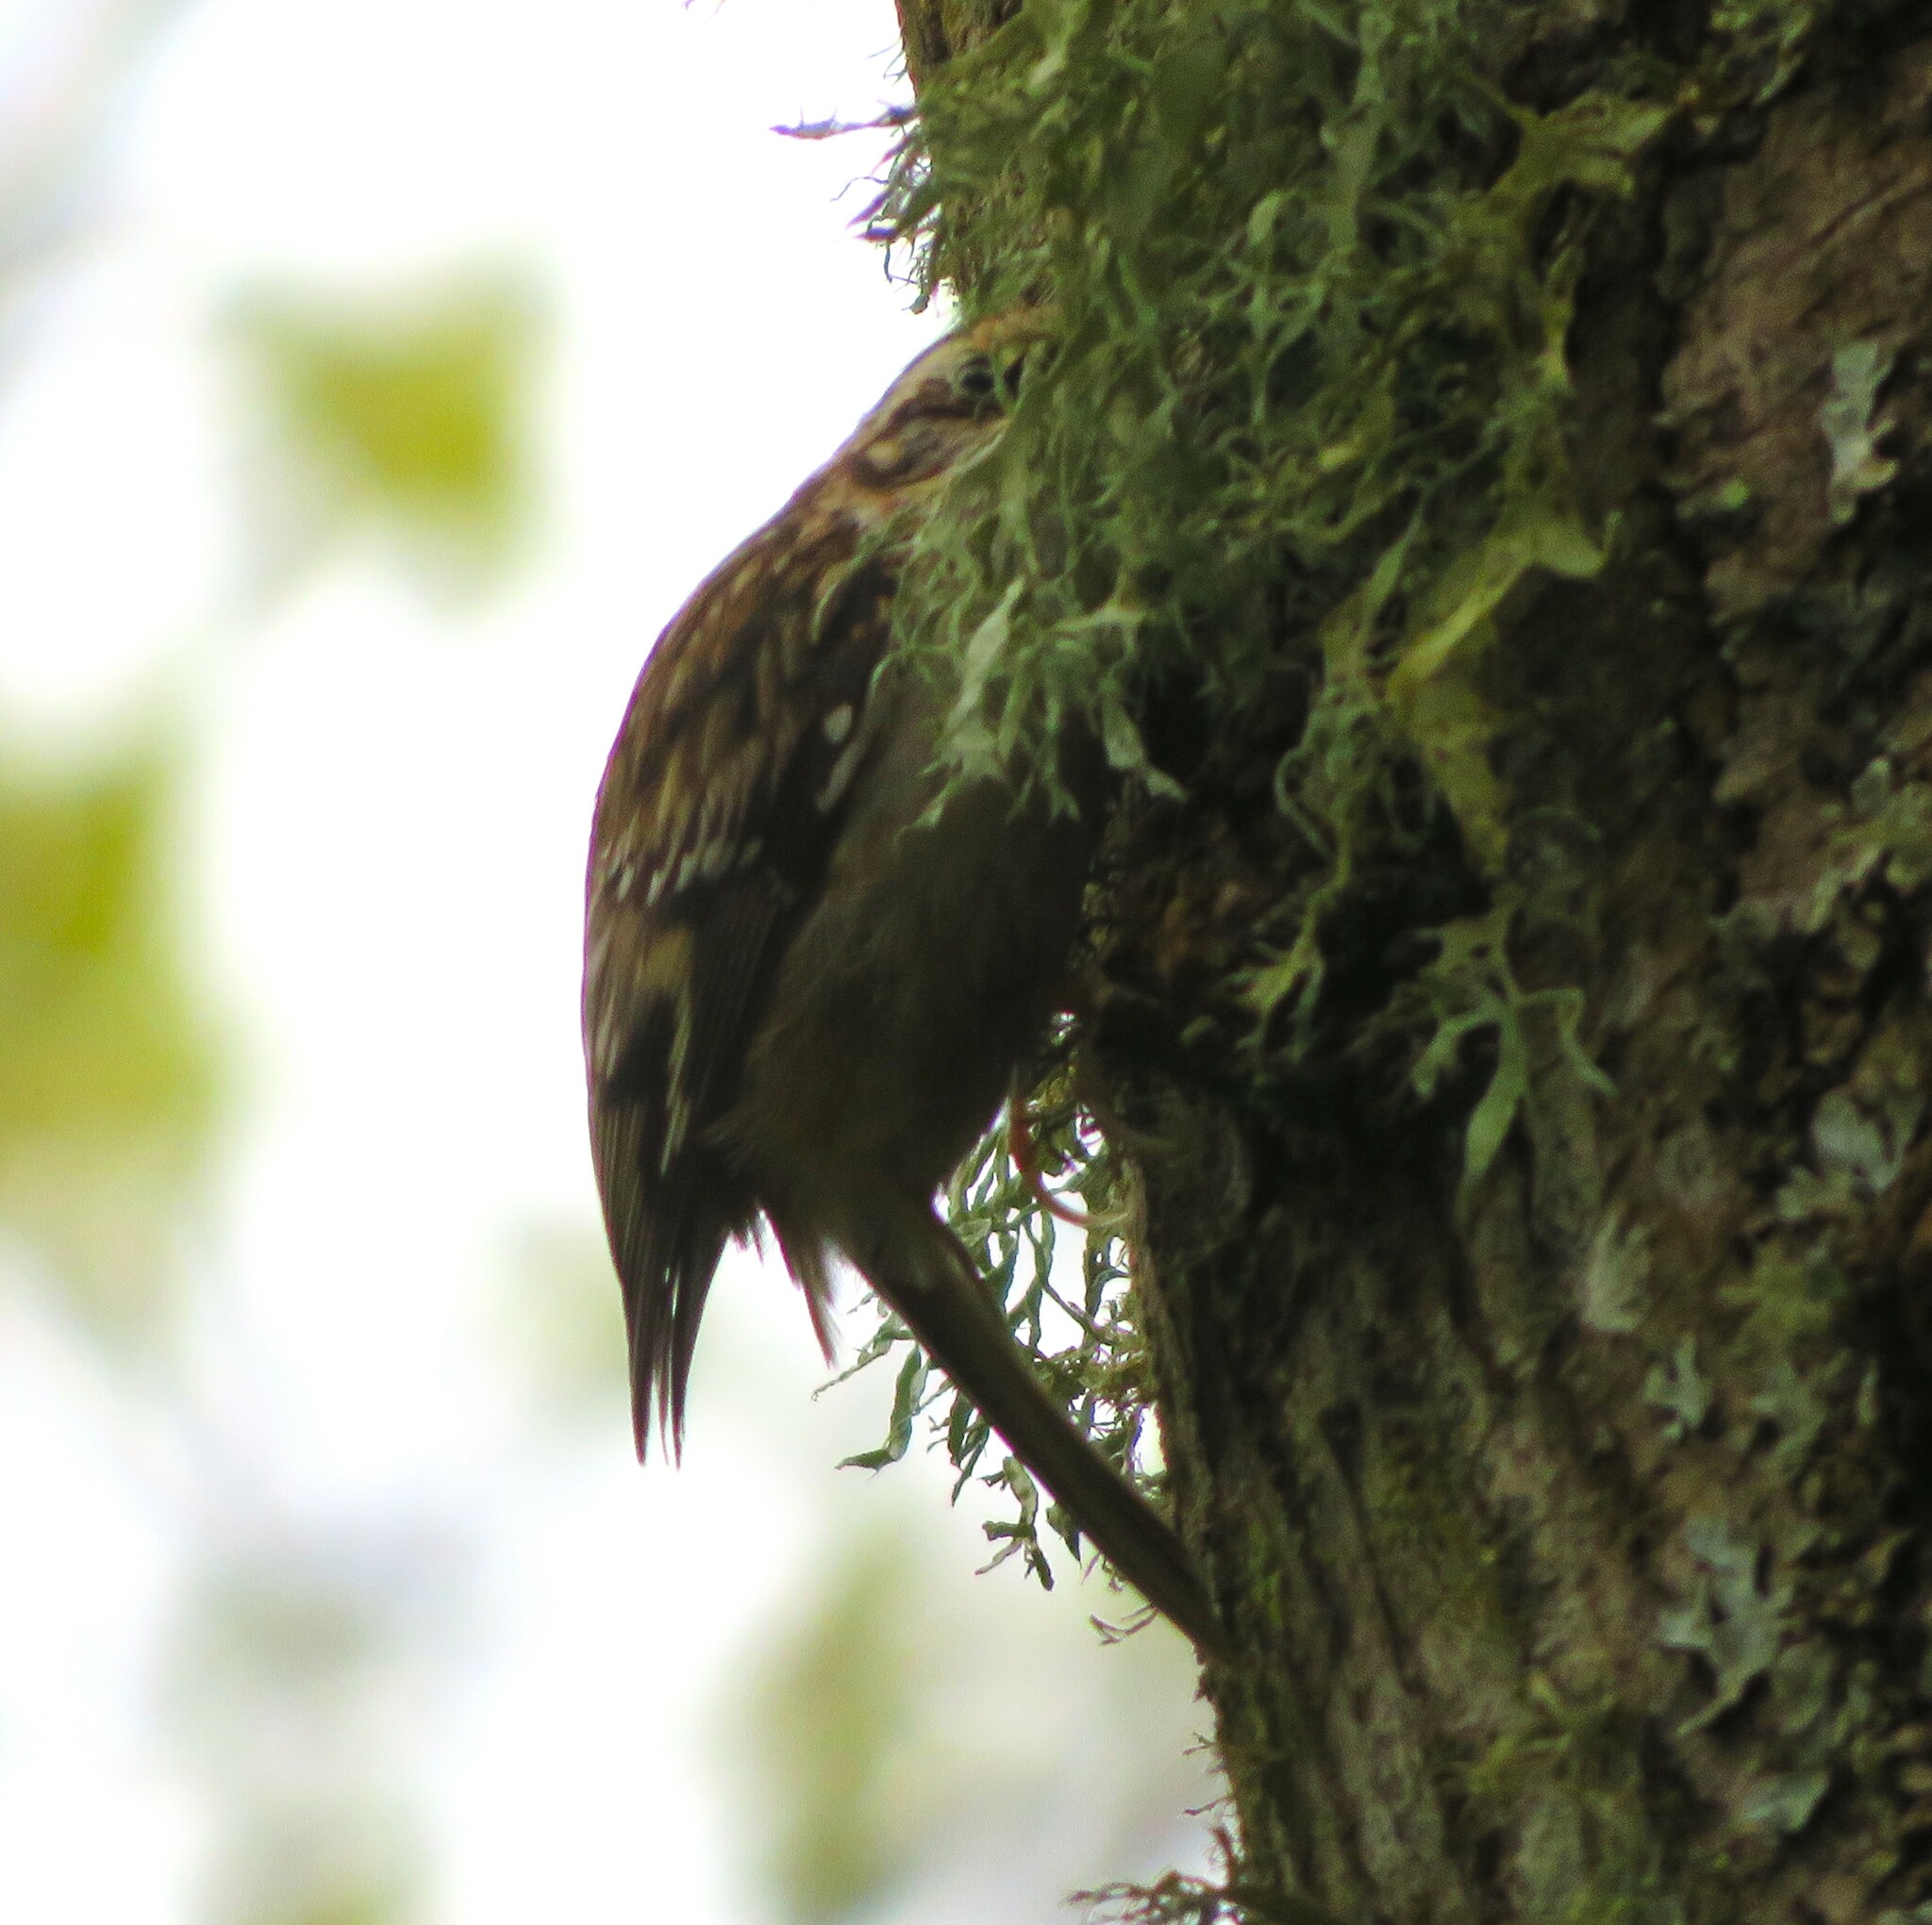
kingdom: Animalia
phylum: Chordata
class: Aves
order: Passeriformes
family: Certhiidae
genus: Certhia
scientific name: Certhia americana
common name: Brown creeper
